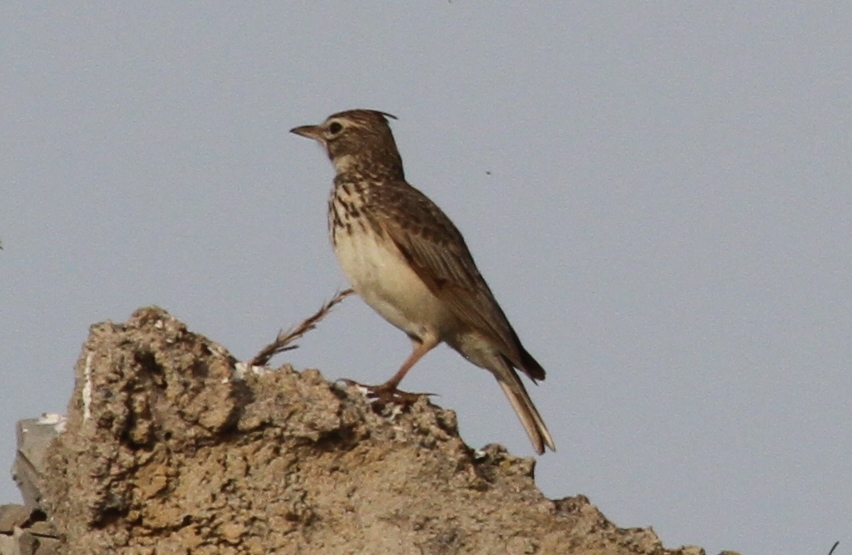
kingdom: Animalia
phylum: Chordata
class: Aves
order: Passeriformes
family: Alaudidae
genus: Alauda
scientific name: Alauda arvensis
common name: Eurasian skylark
